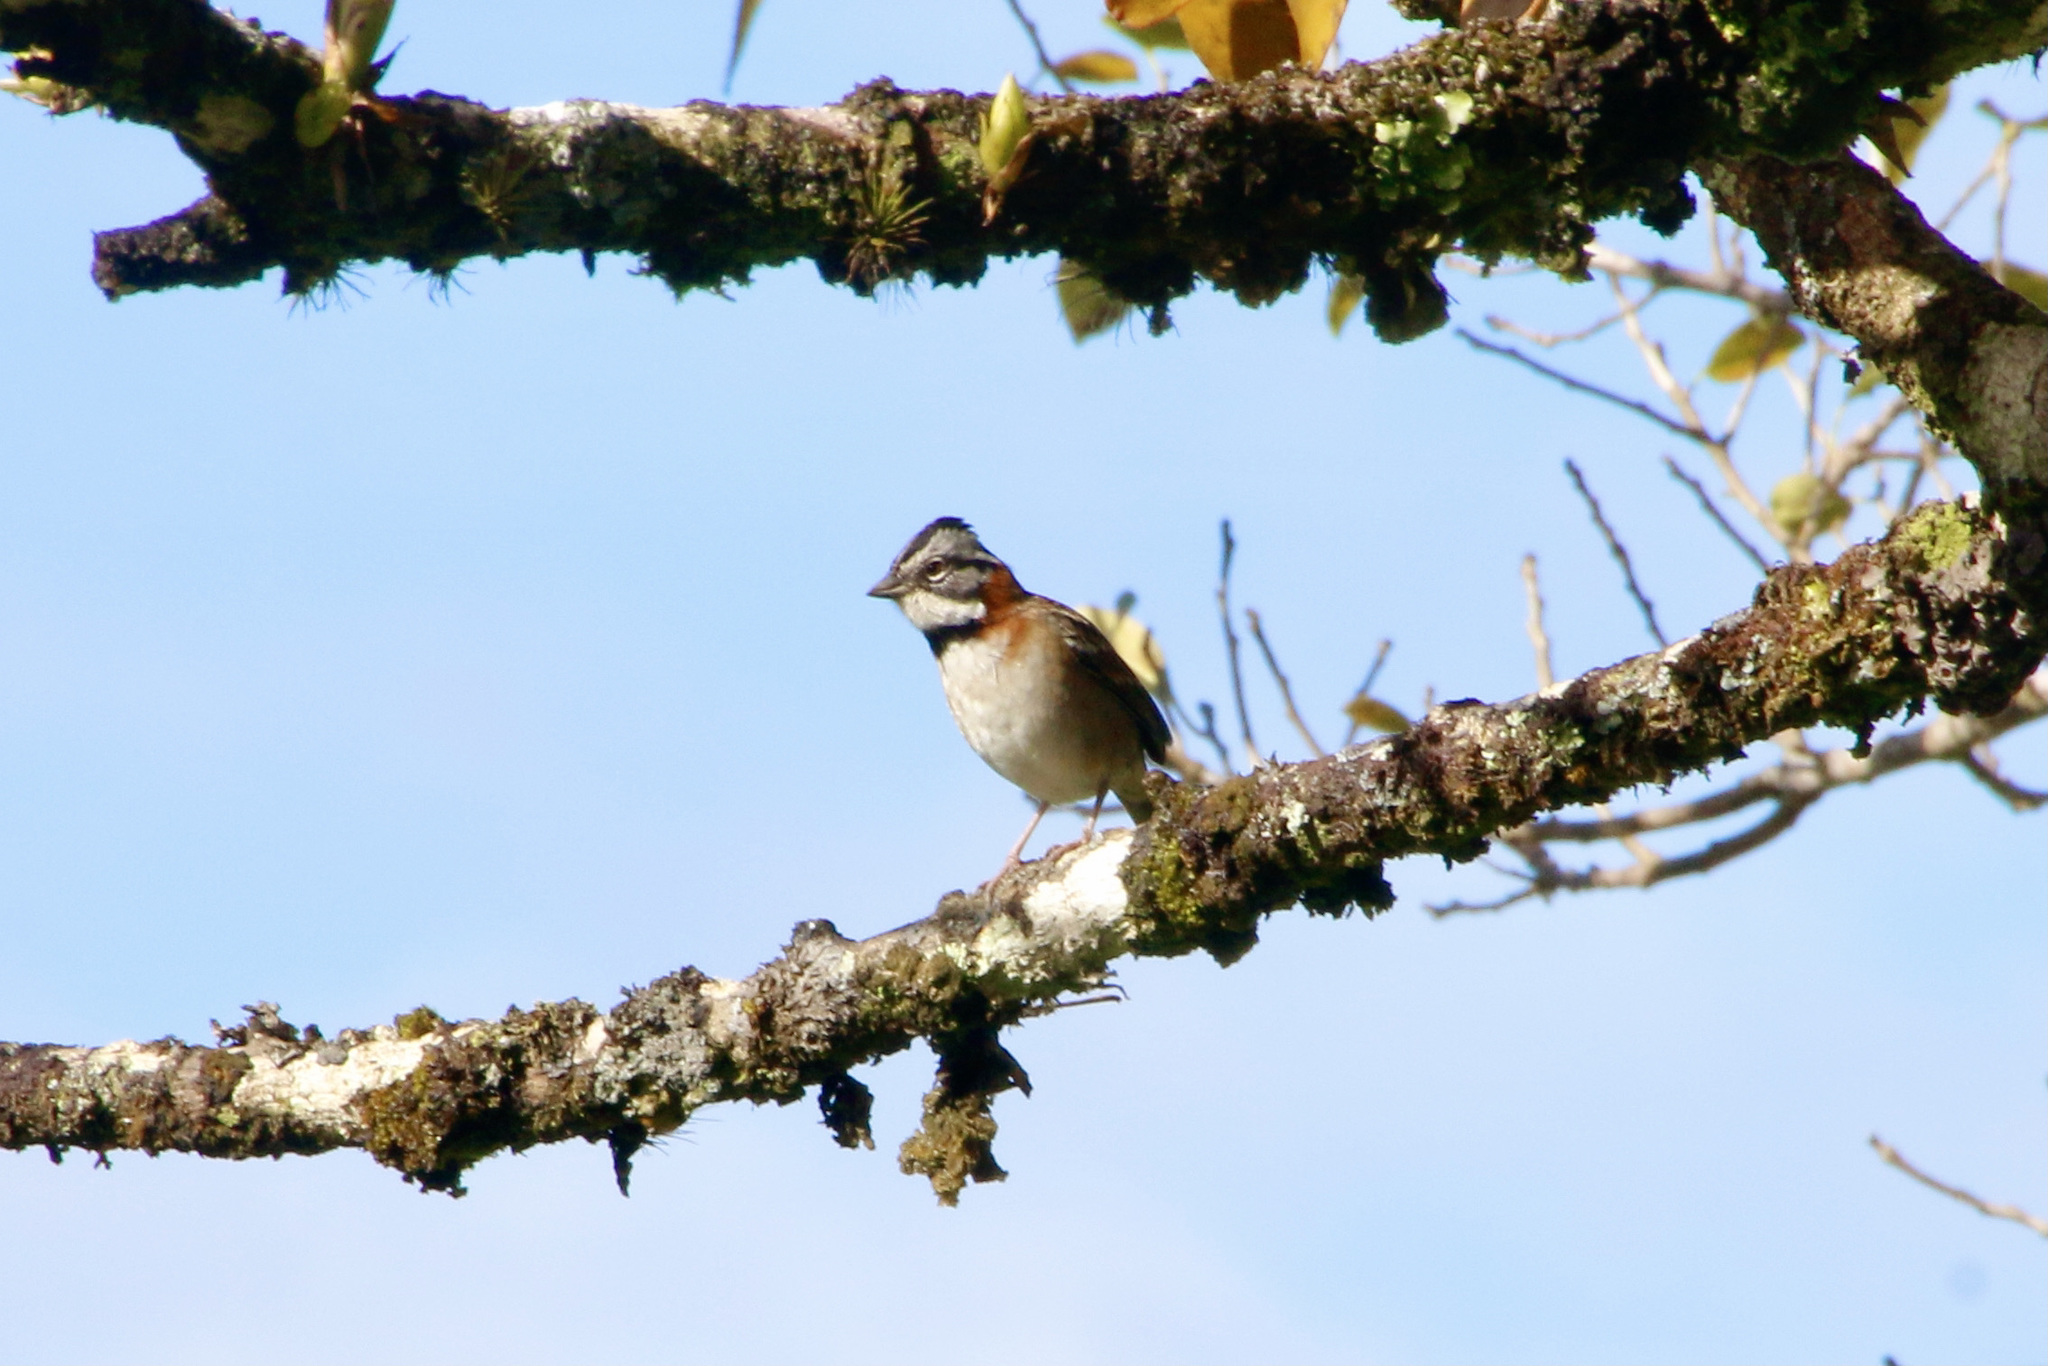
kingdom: Animalia
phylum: Chordata
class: Aves
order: Passeriformes
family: Passerellidae
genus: Zonotrichia
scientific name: Zonotrichia capensis
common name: Rufous-collared sparrow
